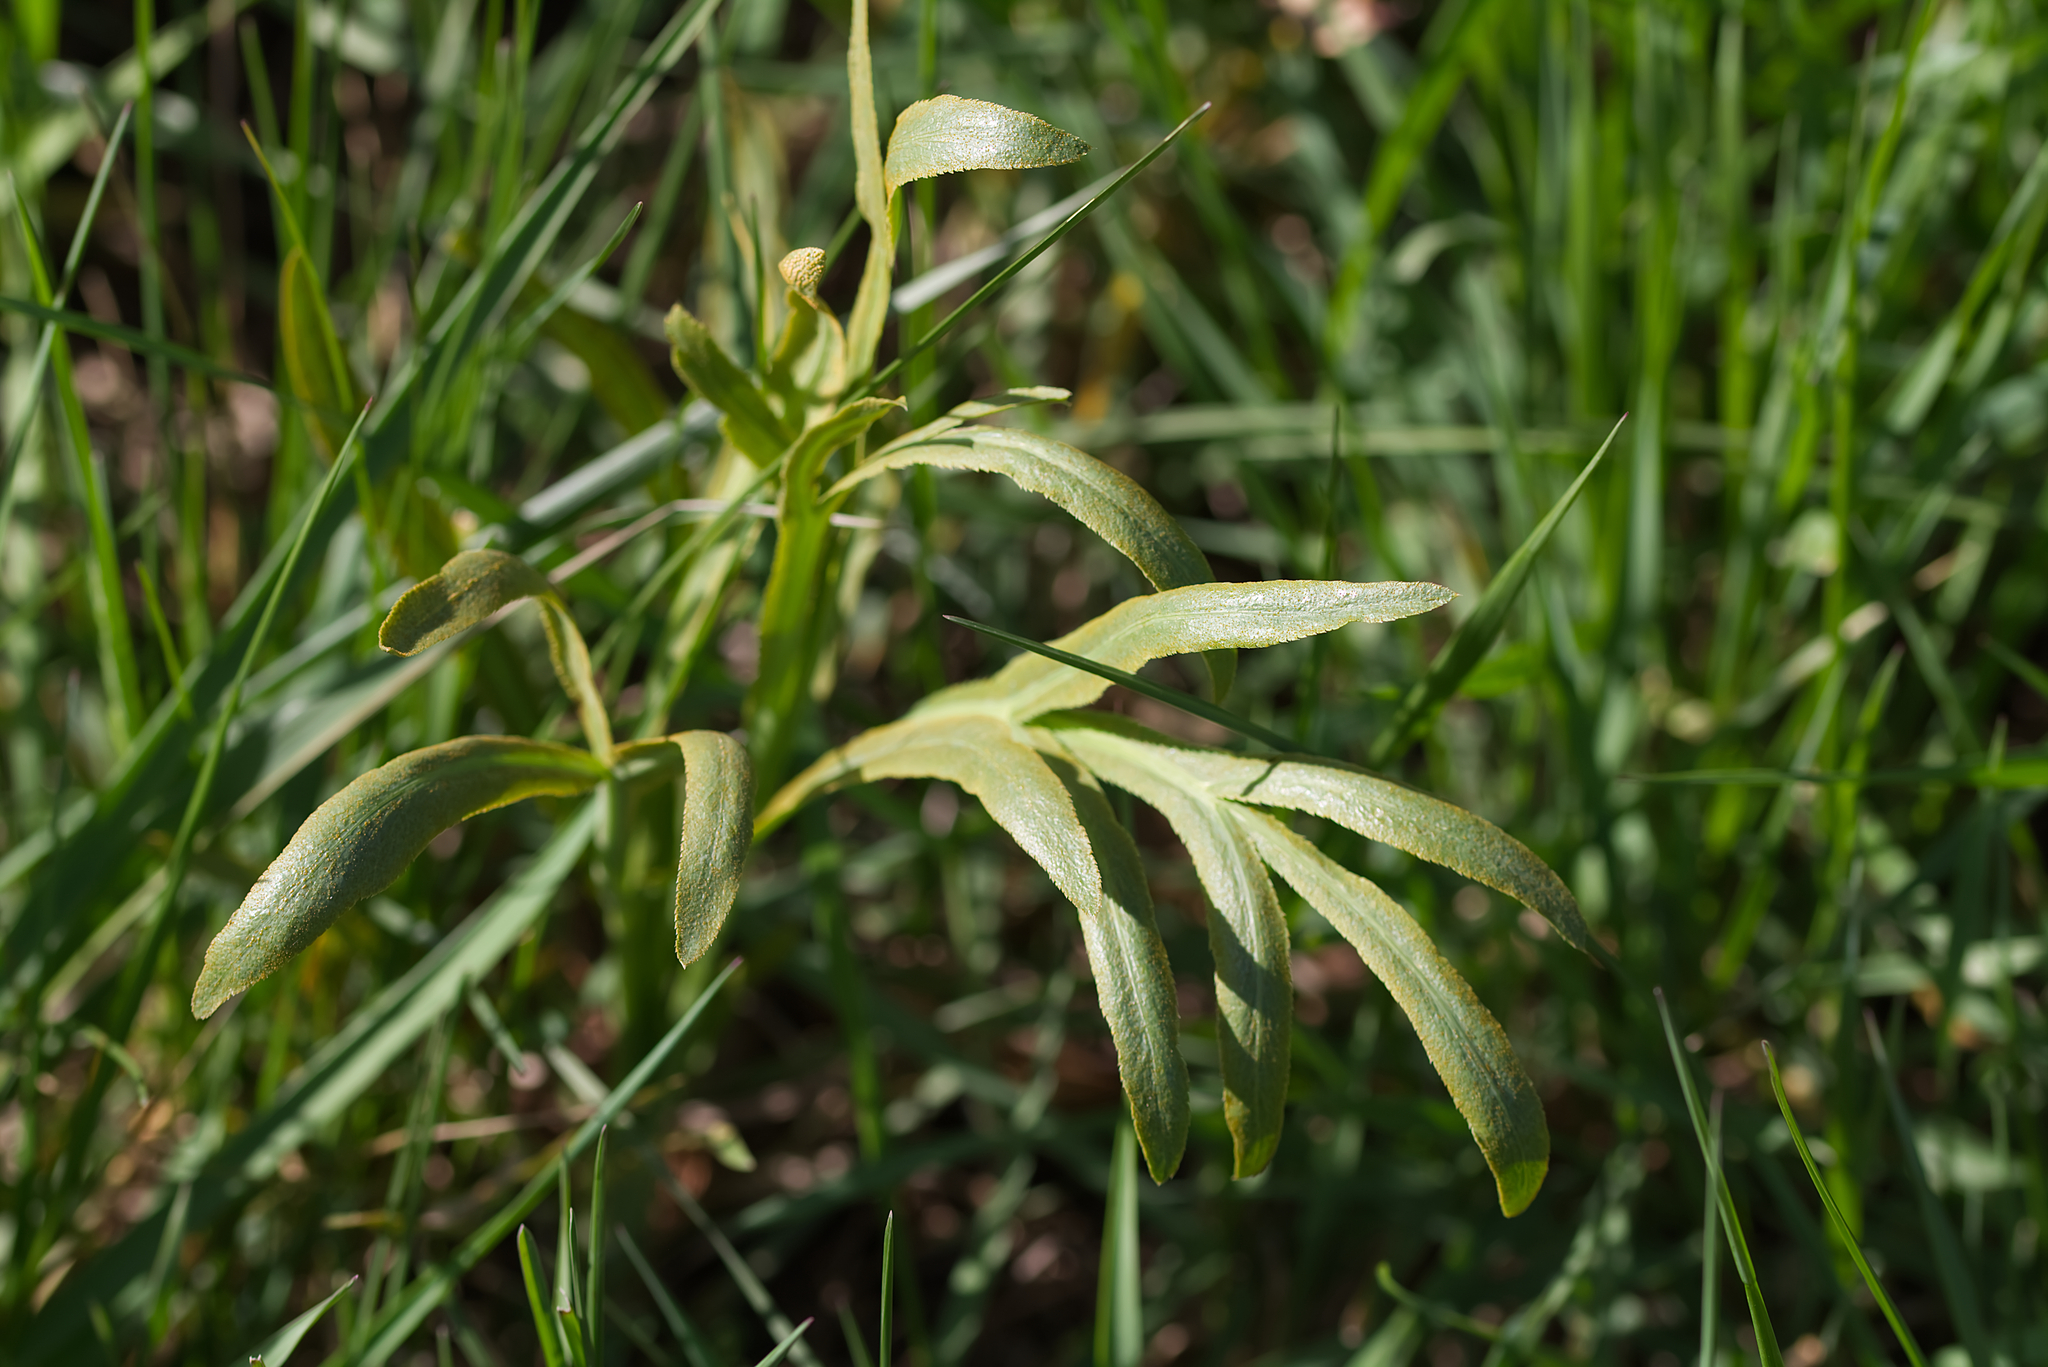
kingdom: Plantae
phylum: Tracheophyta
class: Magnoliopsida
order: Apiales
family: Apiaceae
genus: Falcaria
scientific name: Falcaria vulgaris
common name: Longleaf
